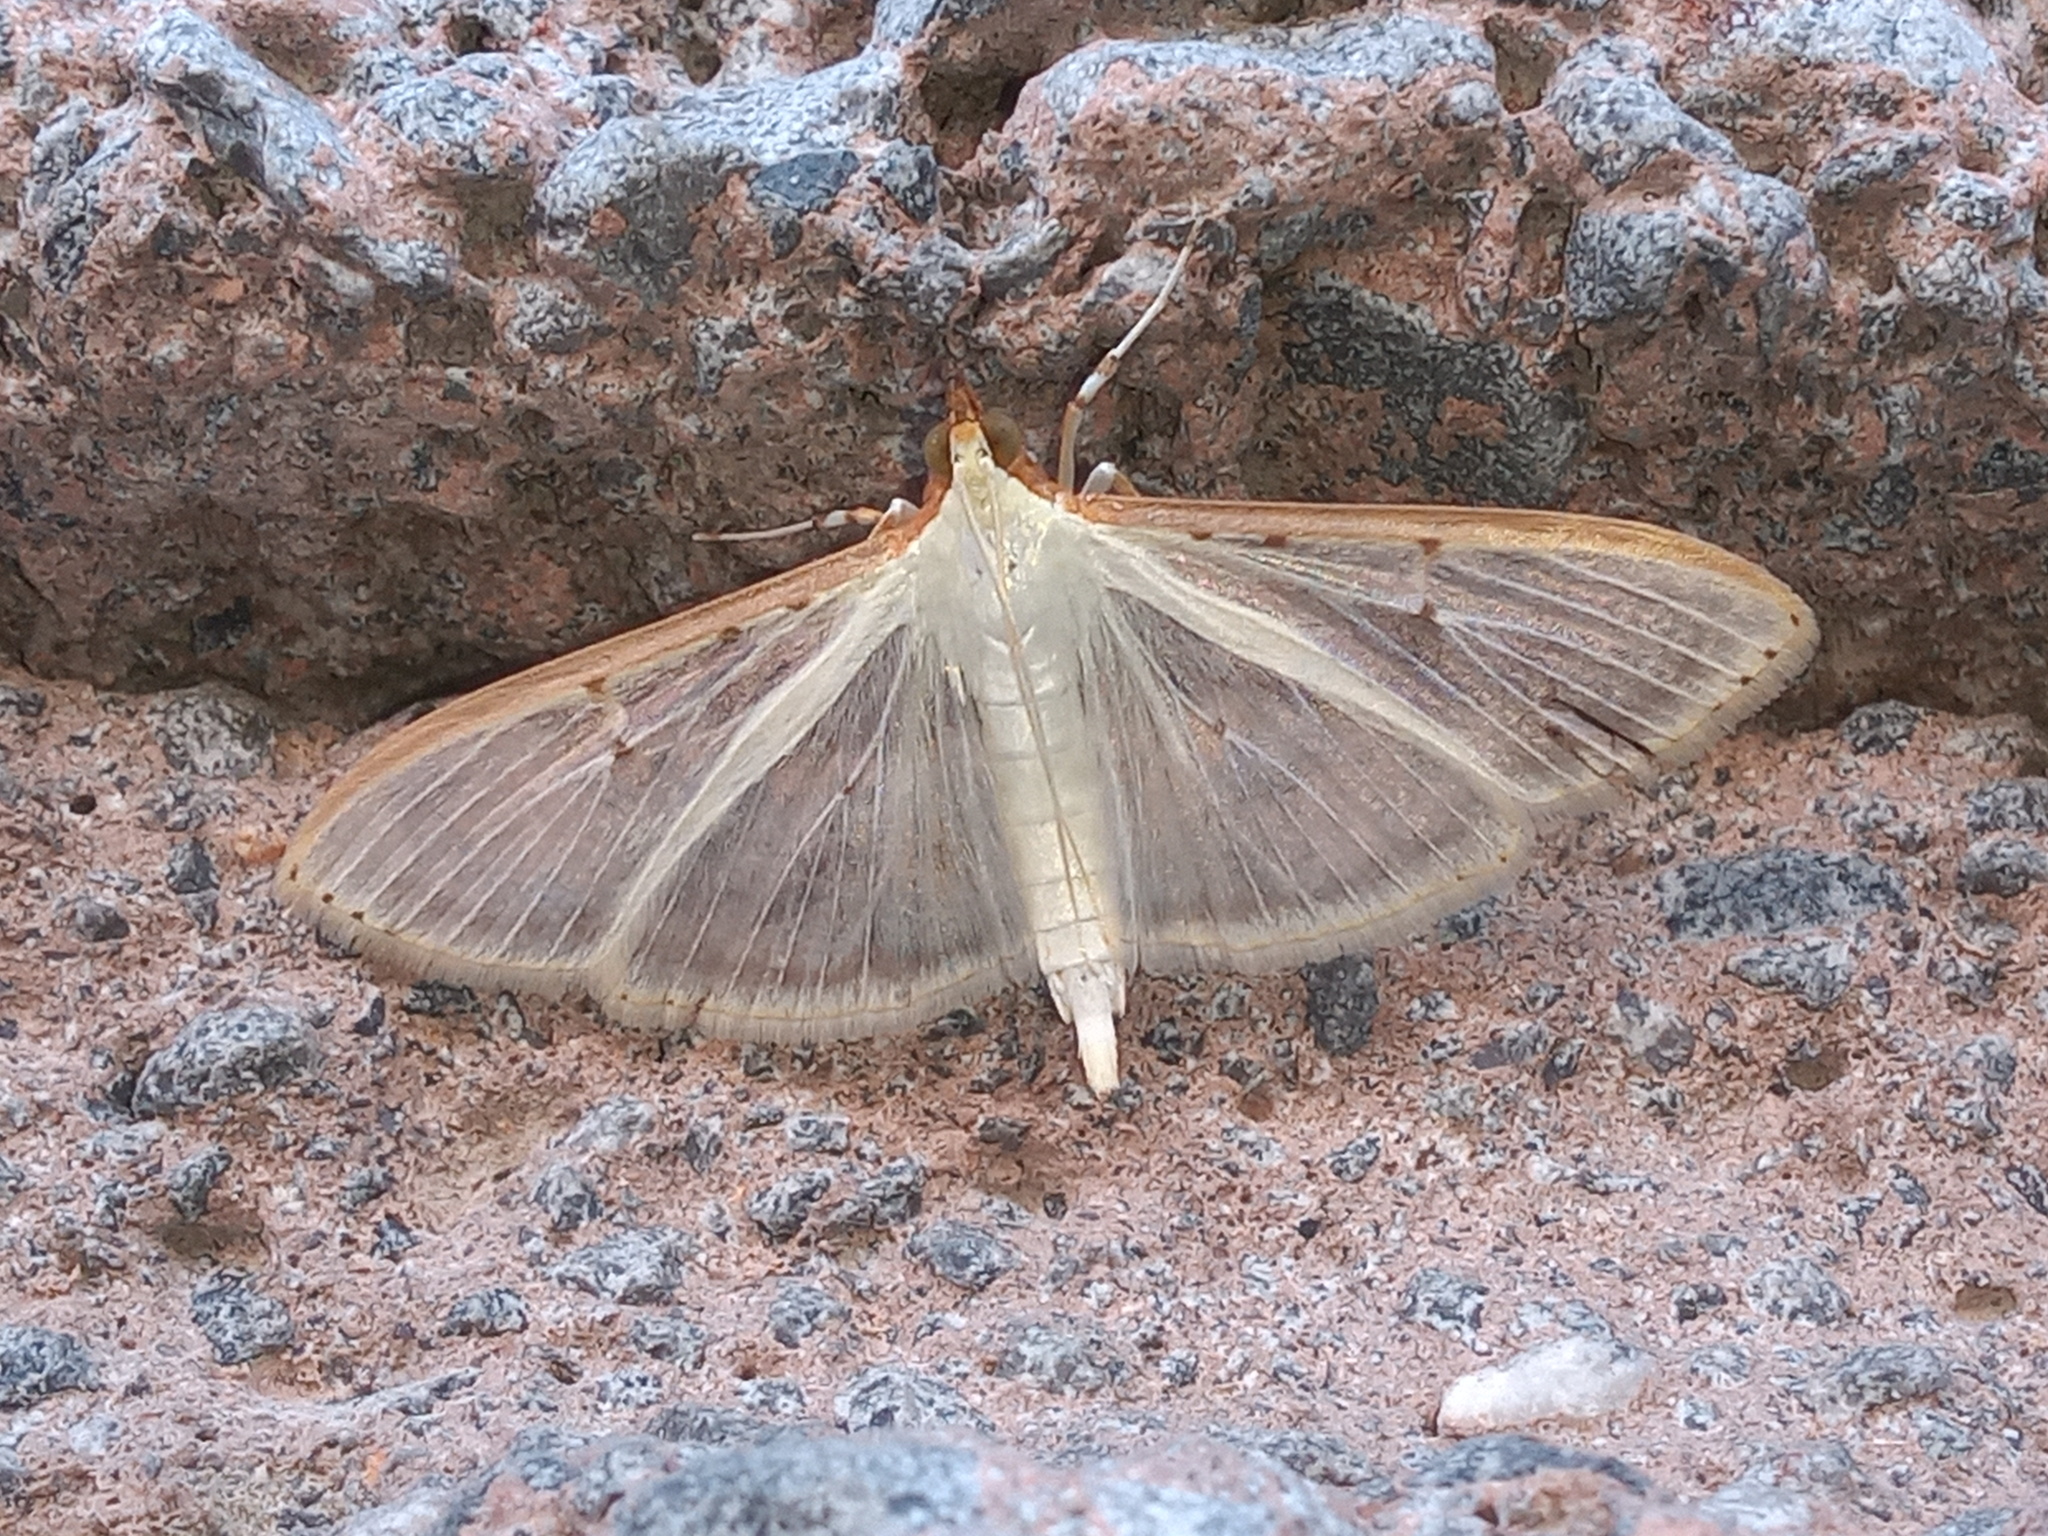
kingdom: Animalia
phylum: Arthropoda
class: Insecta
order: Lepidoptera
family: Crambidae
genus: Palpita
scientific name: Palpita quadristigmalis
